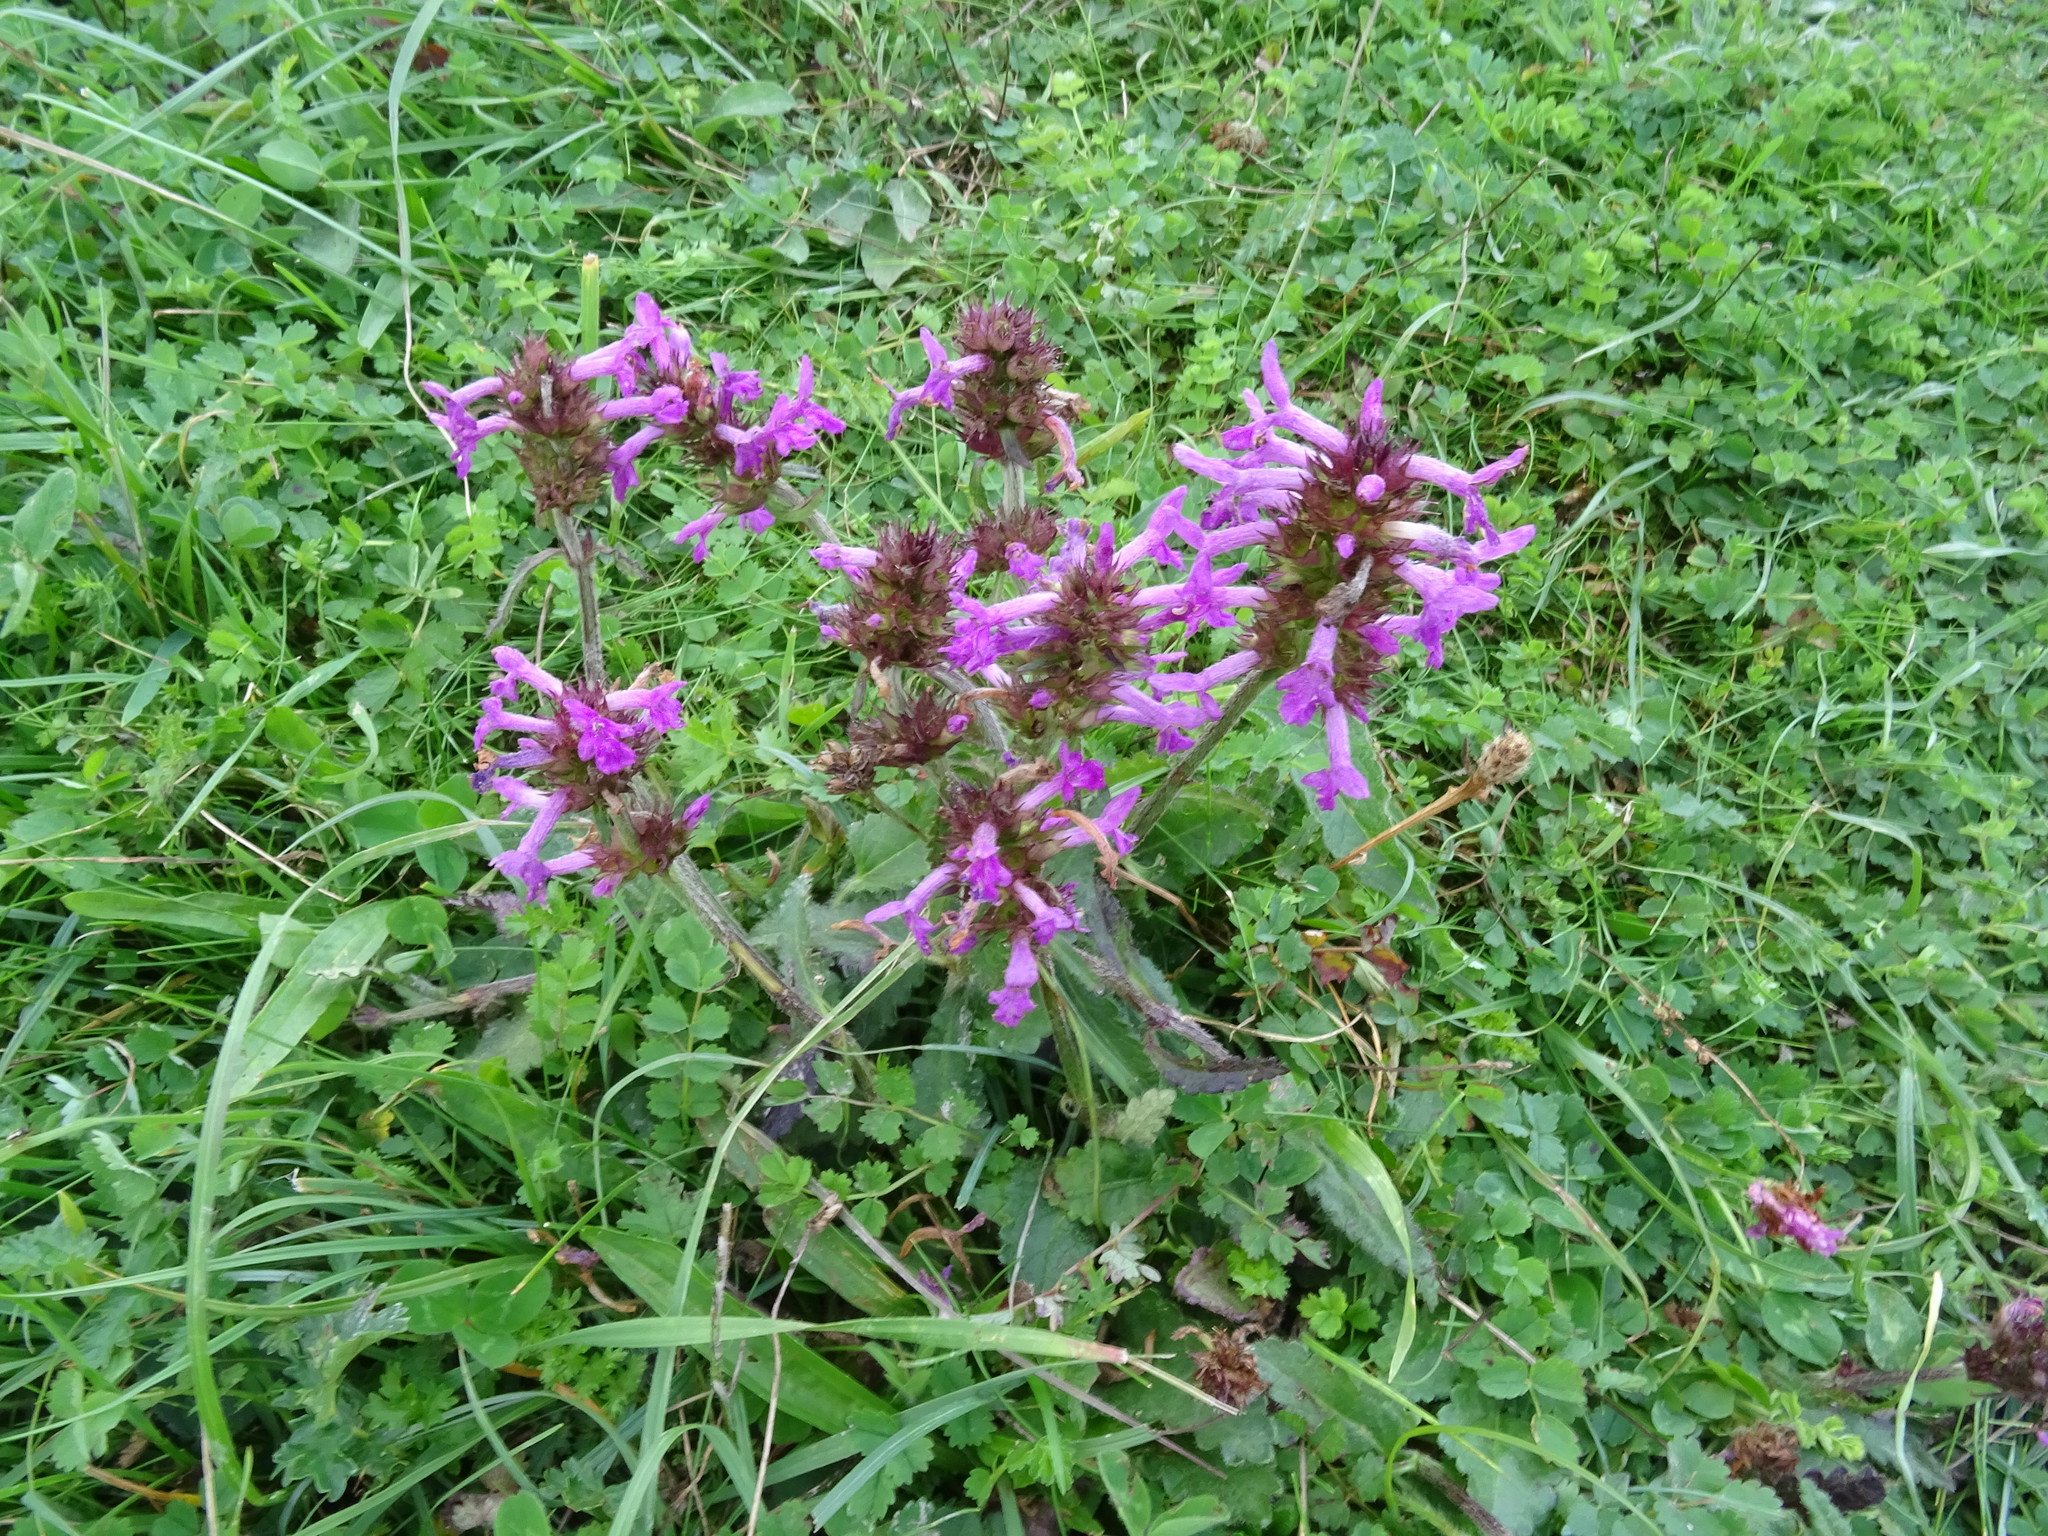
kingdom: Plantae
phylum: Tracheophyta
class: Magnoliopsida
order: Lamiales
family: Lamiaceae
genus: Betonica
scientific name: Betonica officinalis
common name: Bishop's-wort
